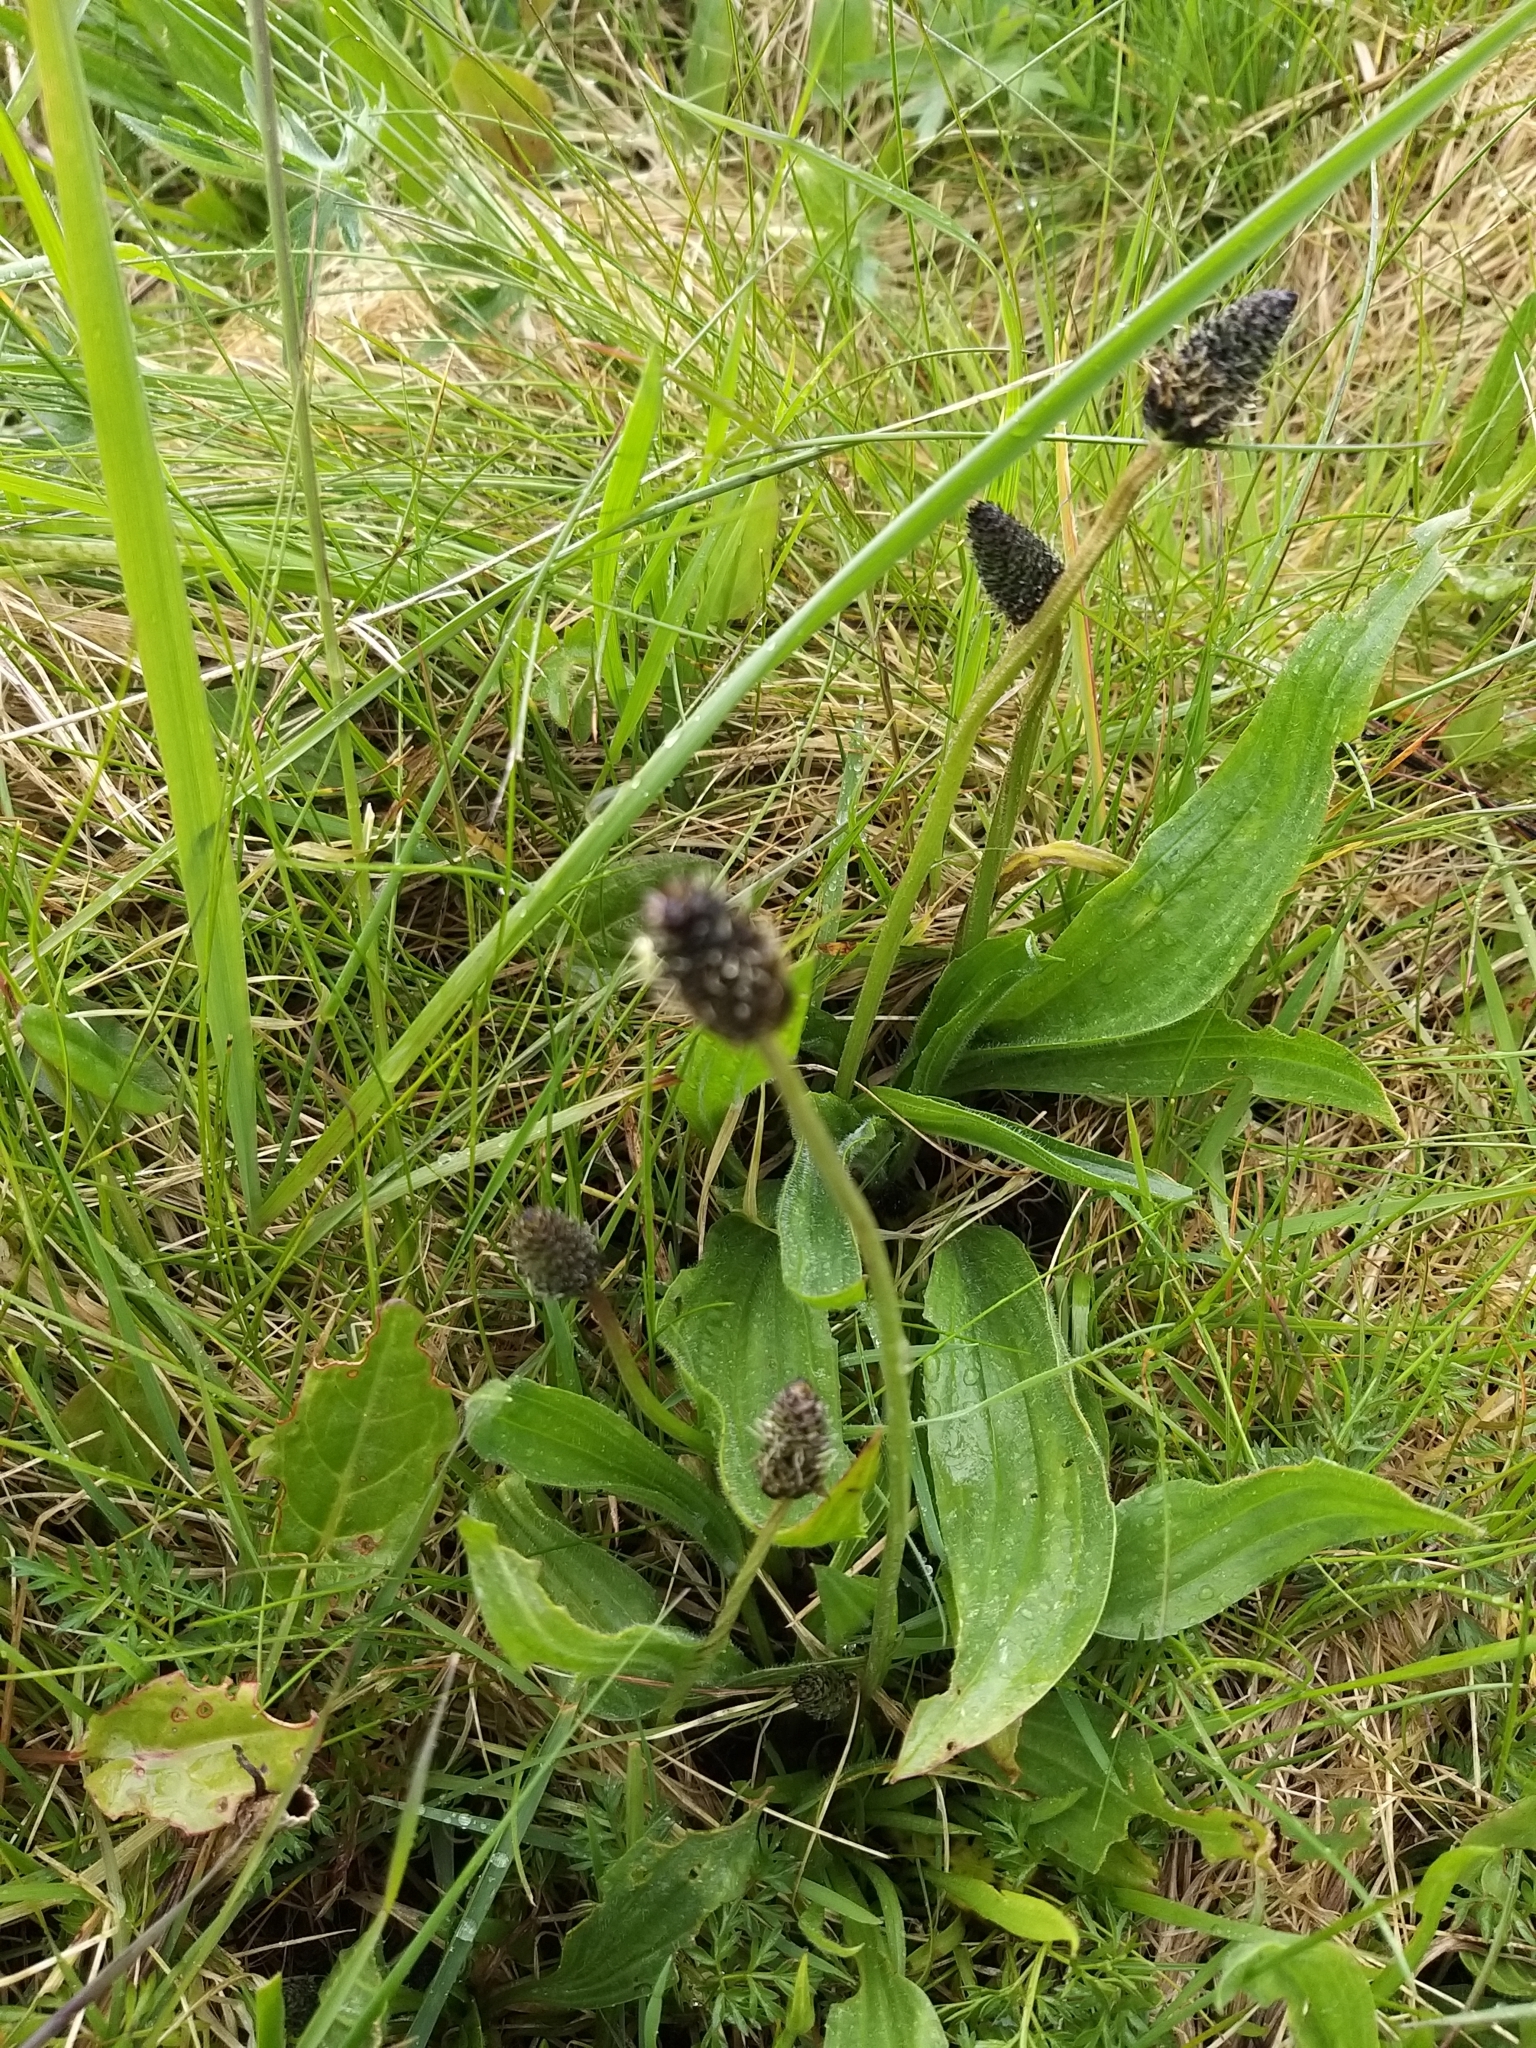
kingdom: Plantae
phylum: Tracheophyta
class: Magnoliopsida
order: Lamiales
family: Plantaginaceae
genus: Plantago
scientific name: Plantago lanceolata
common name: Ribwort plantain
